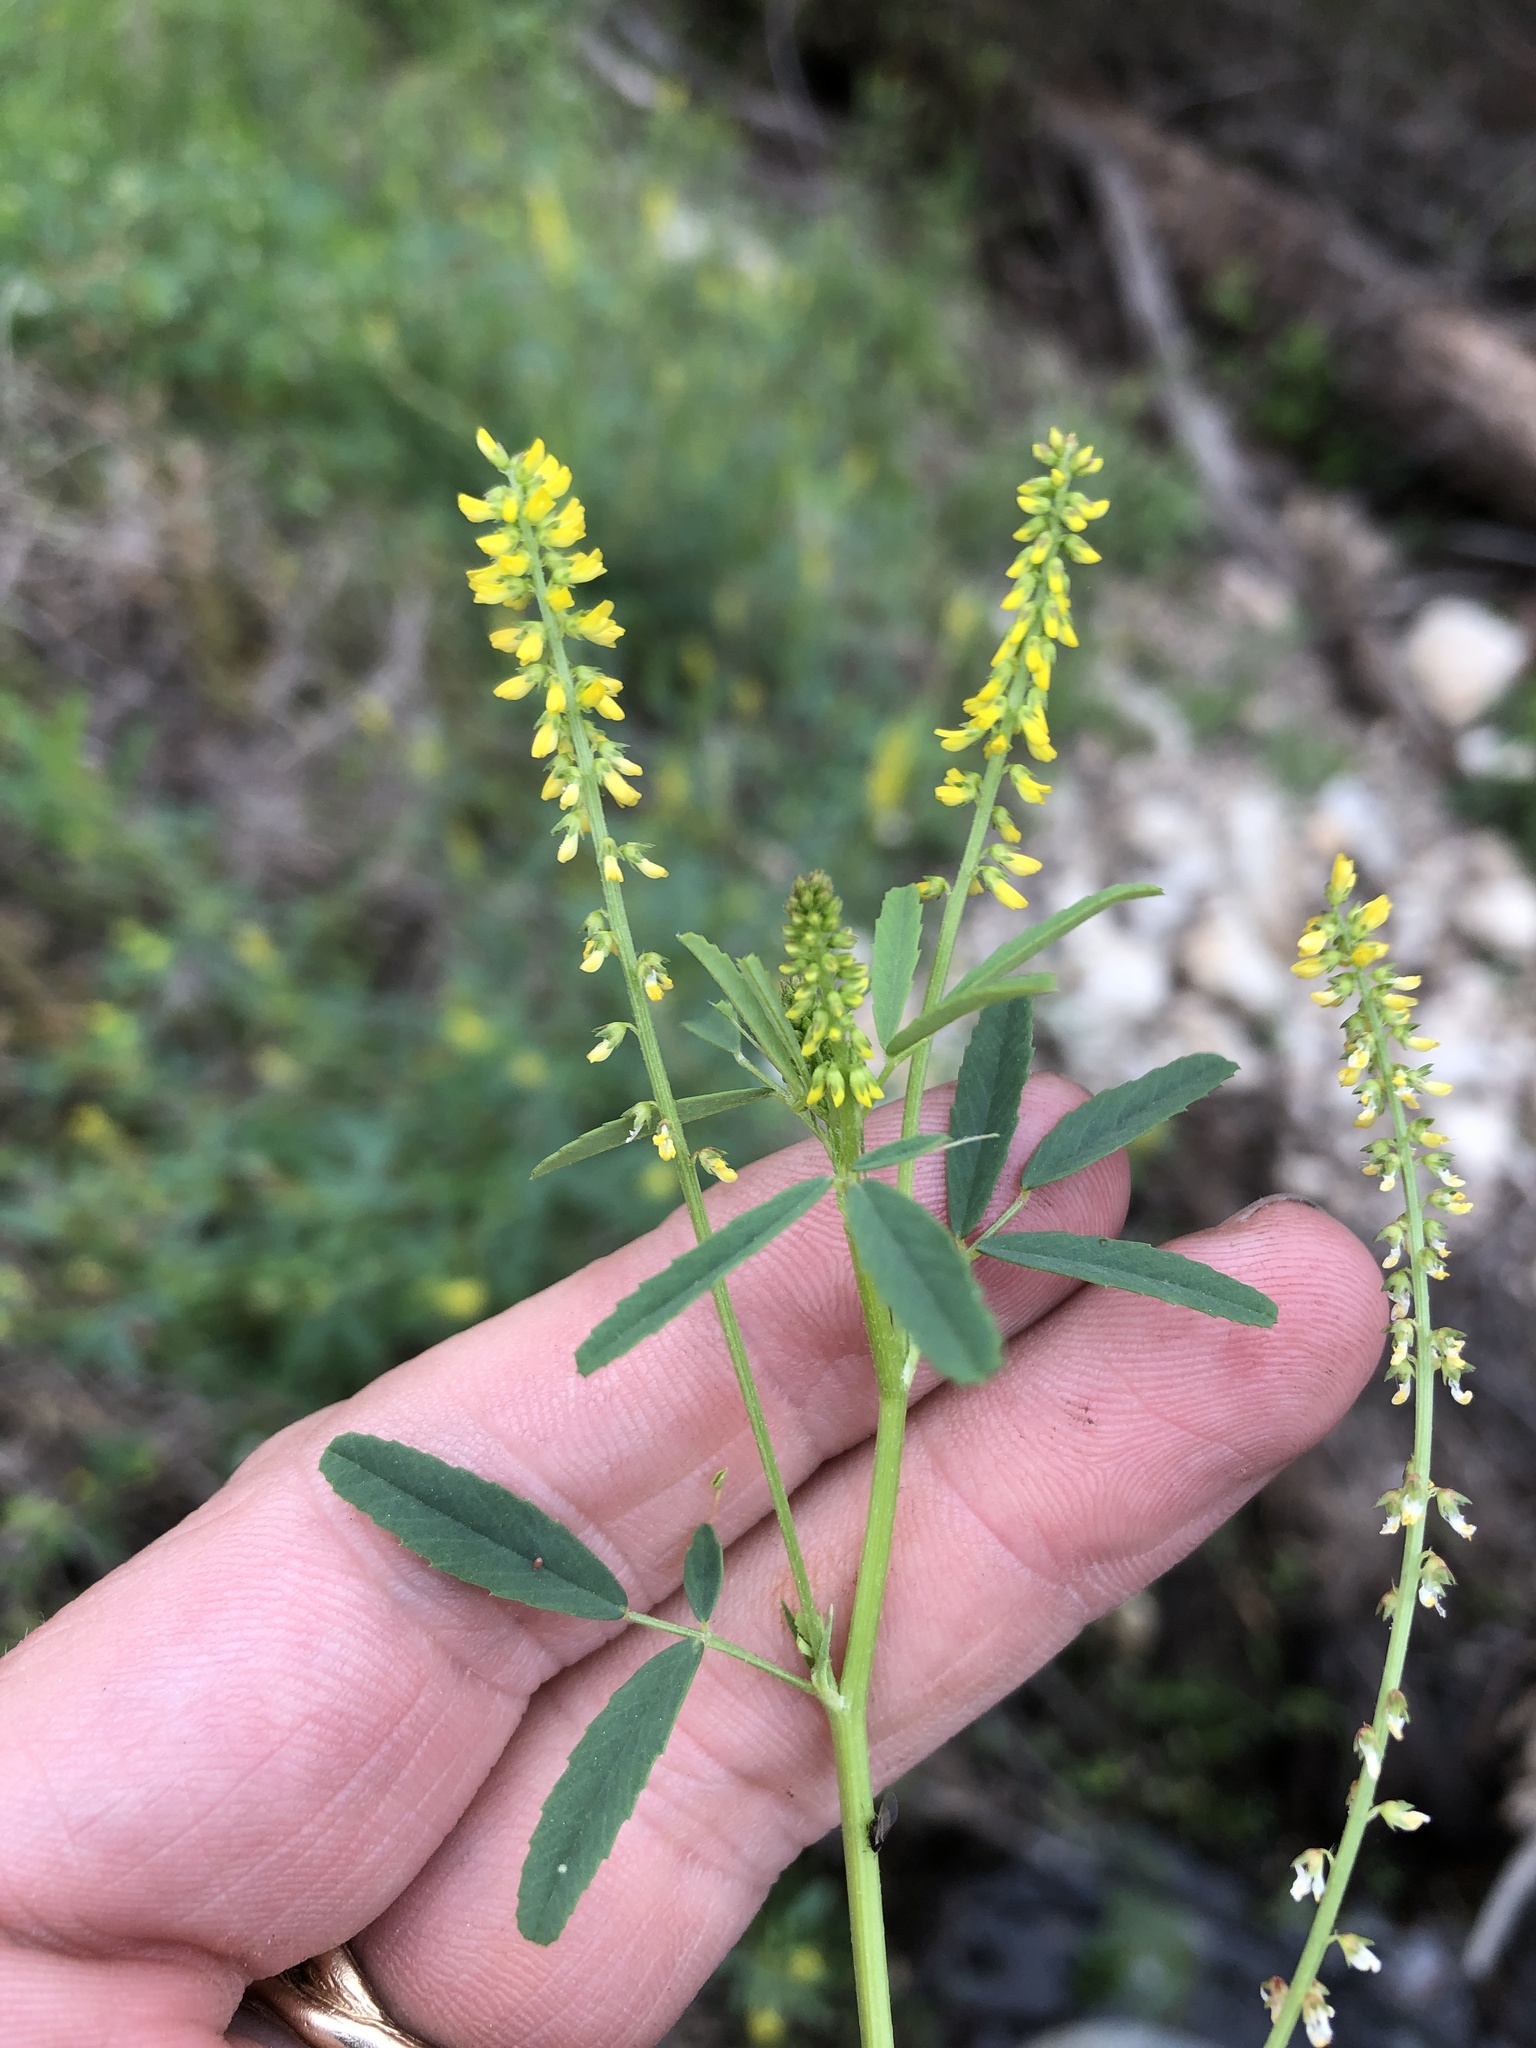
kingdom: Plantae
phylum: Tracheophyta
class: Magnoliopsida
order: Fabales
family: Fabaceae
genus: Melilotus
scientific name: Melilotus indicus
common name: Small melilot
